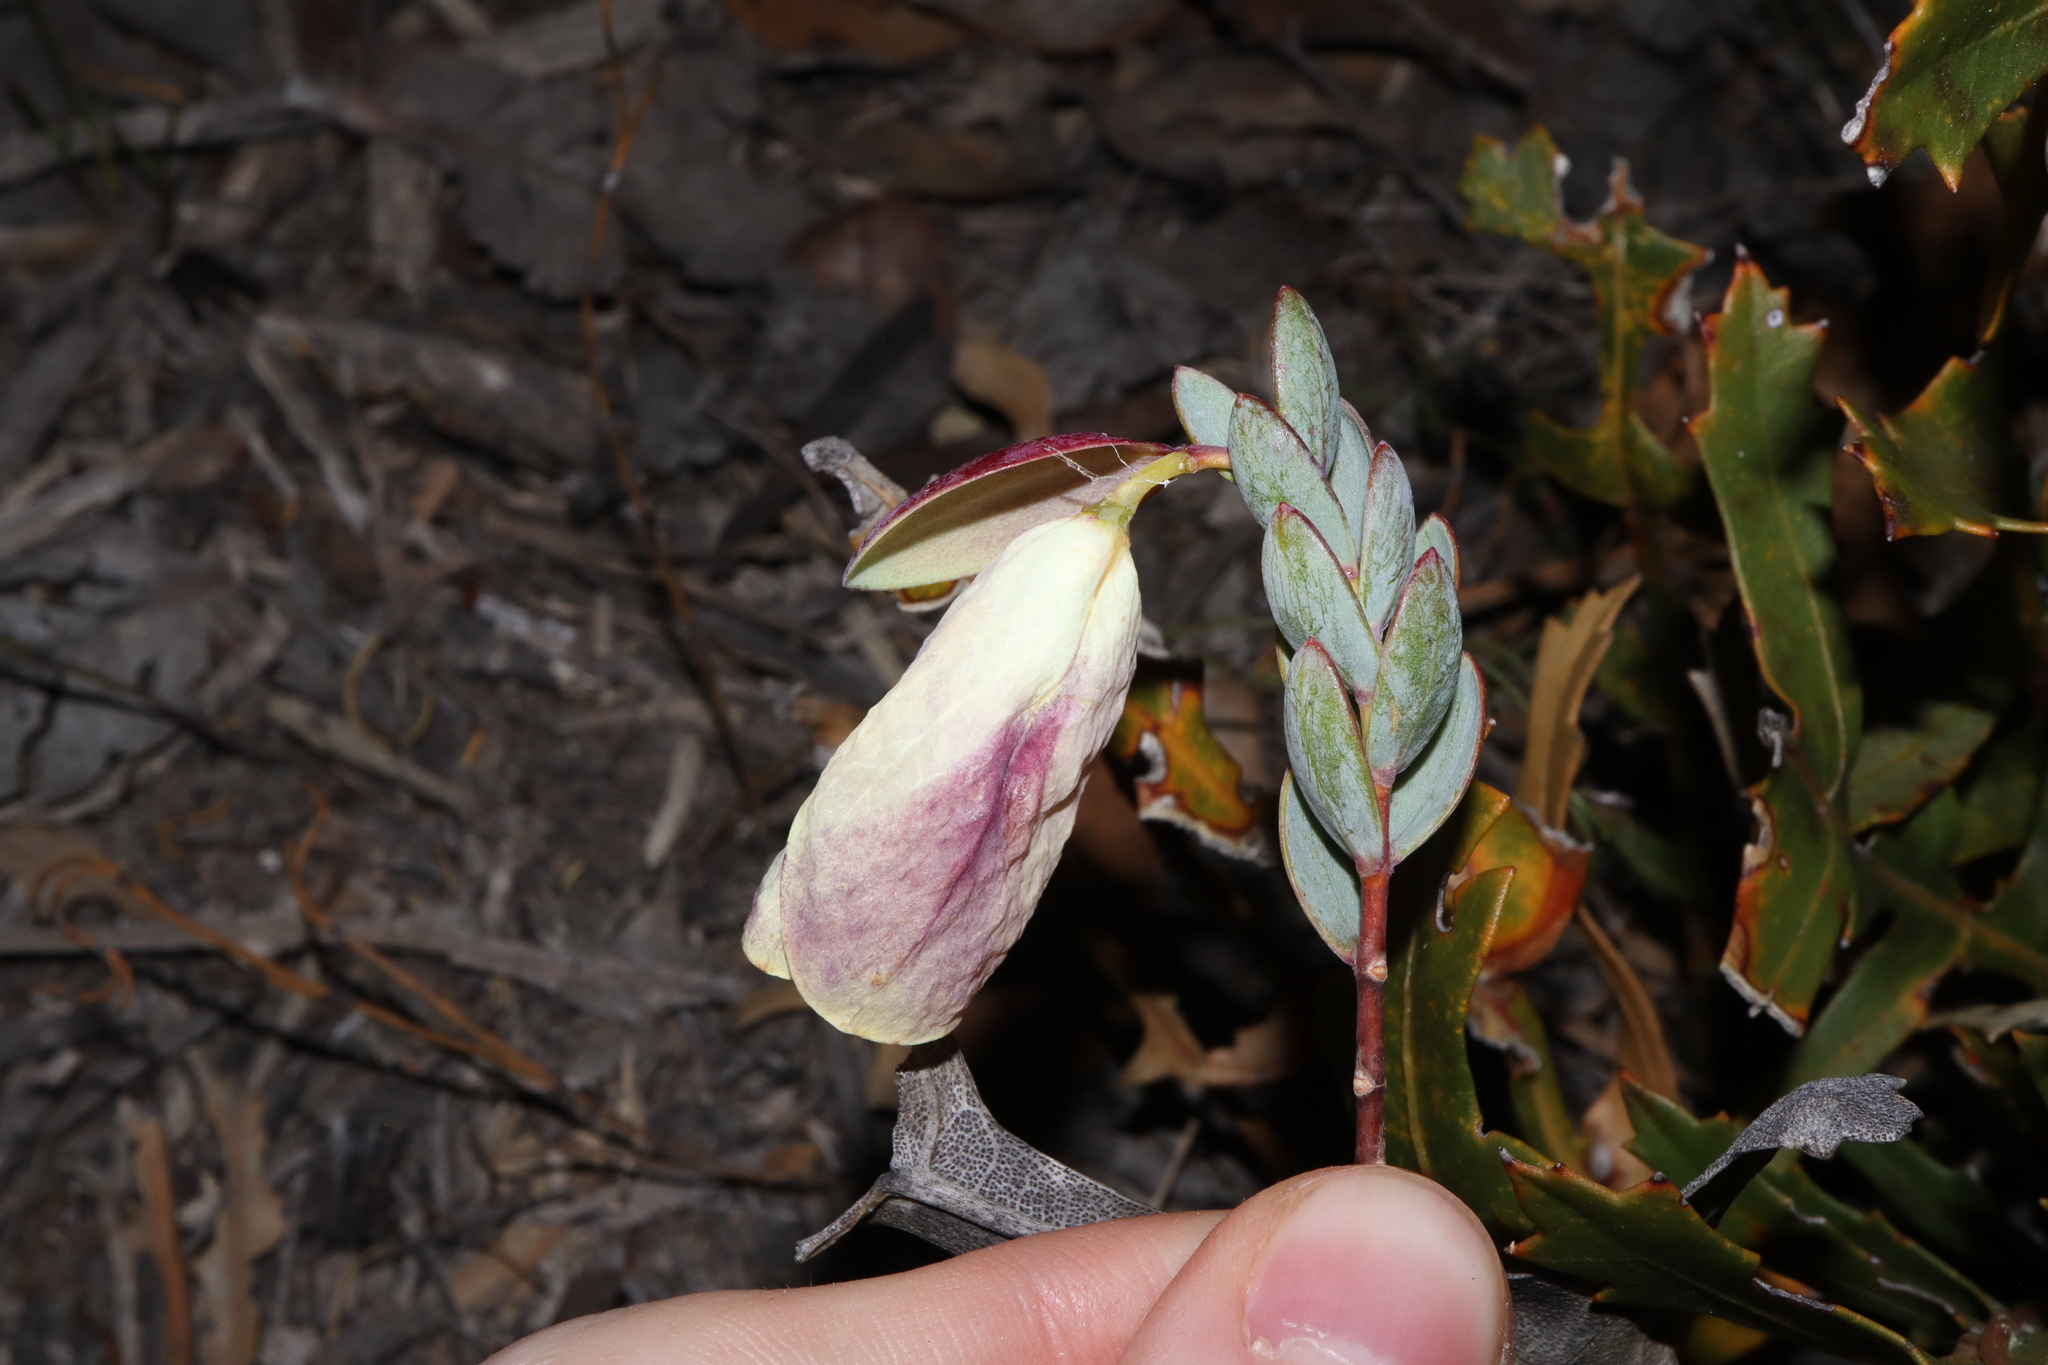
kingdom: Plantae
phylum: Tracheophyta
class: Magnoliopsida
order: Malvales
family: Thymelaeaceae
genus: Pimelea
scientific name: Pimelea physodes
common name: Qualup-bell
